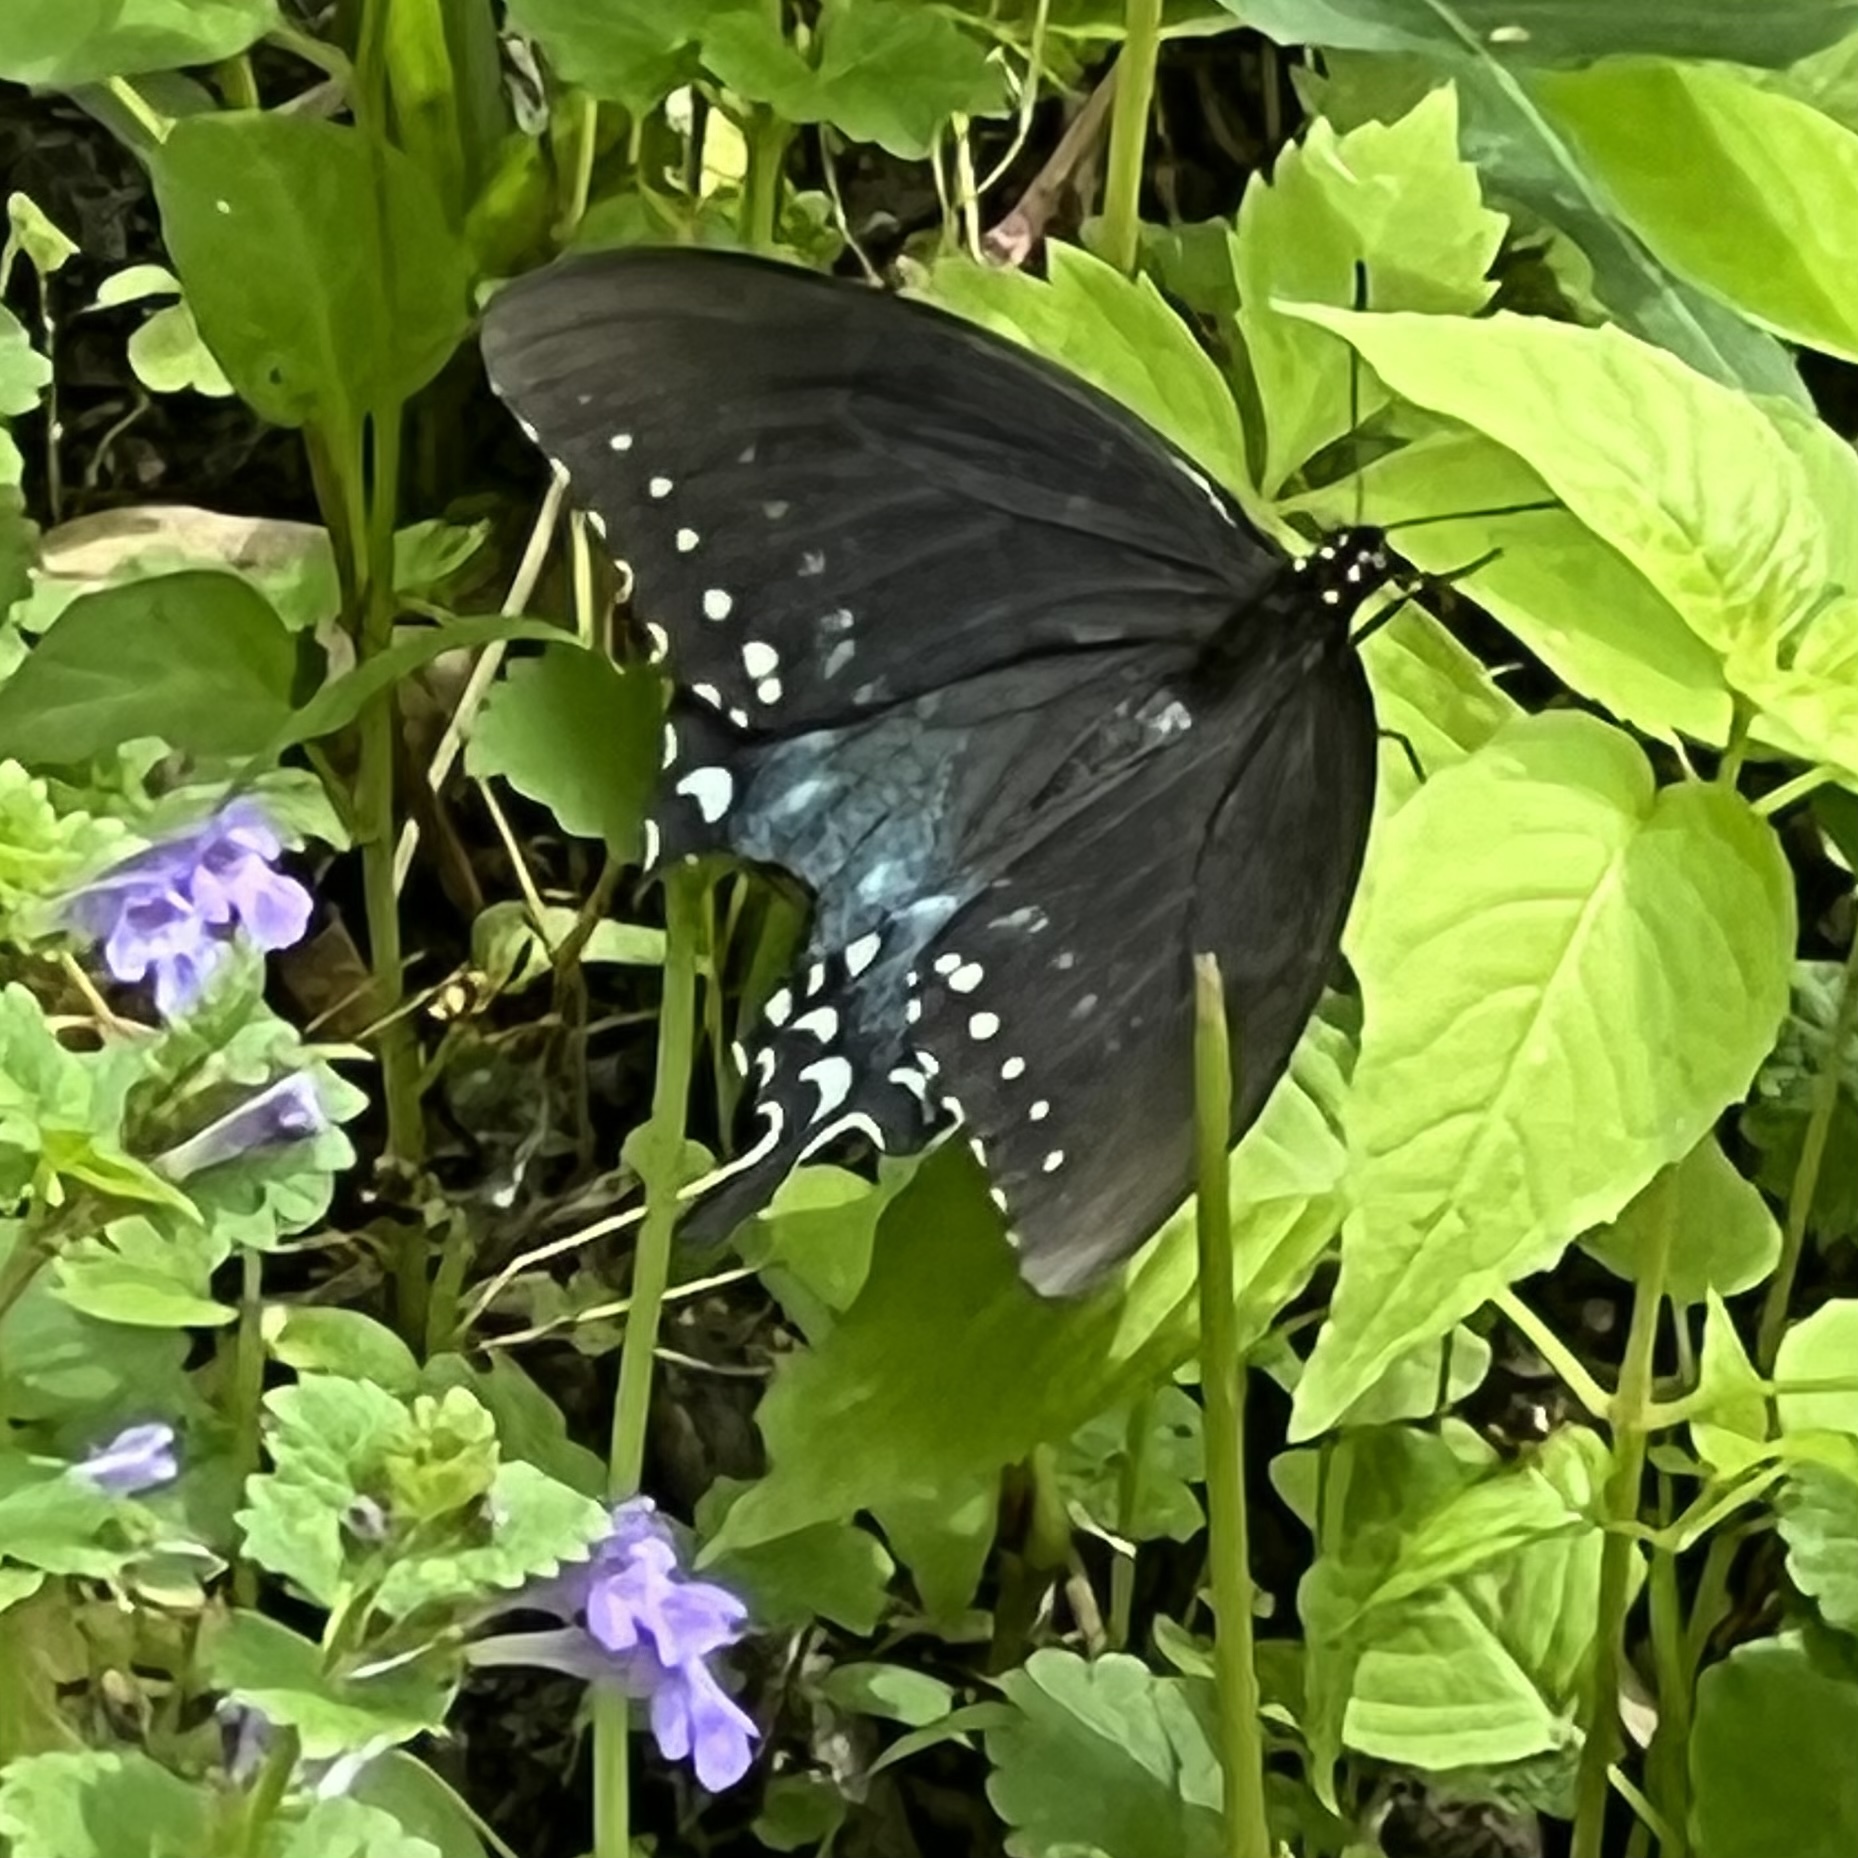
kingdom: Animalia
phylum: Arthropoda
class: Insecta
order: Lepidoptera
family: Papilionidae
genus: Papilio
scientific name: Papilio troilus
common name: Spicebush swallowtail
